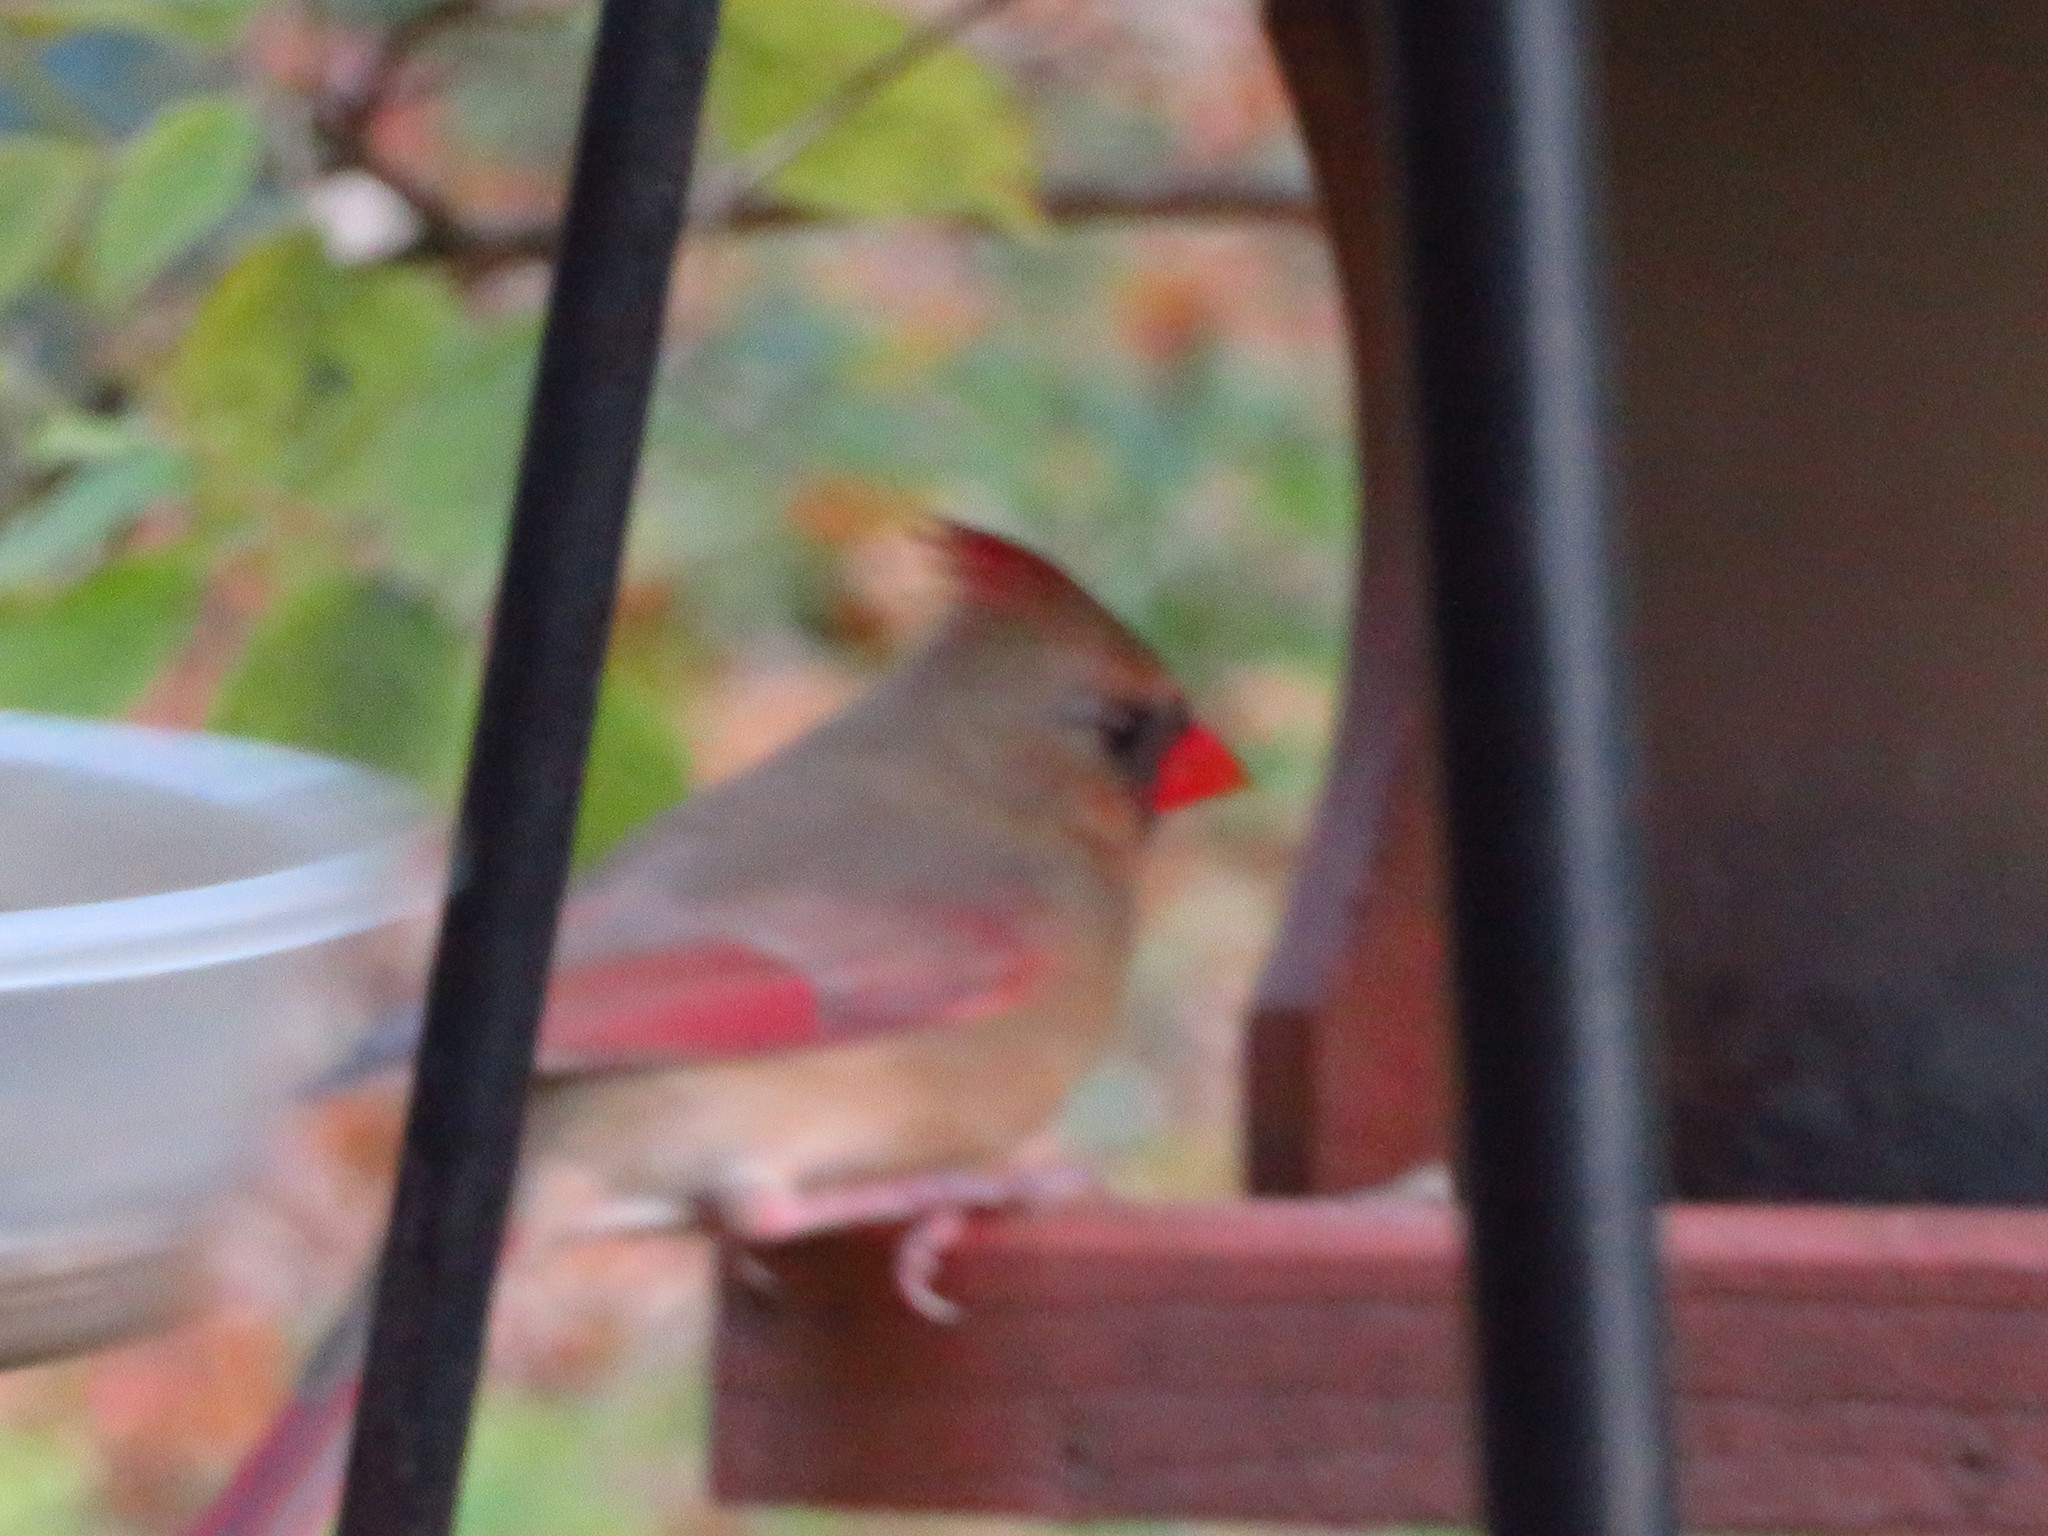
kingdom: Animalia
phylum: Chordata
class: Aves
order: Passeriformes
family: Cardinalidae
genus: Cardinalis
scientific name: Cardinalis cardinalis
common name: Northern cardinal
